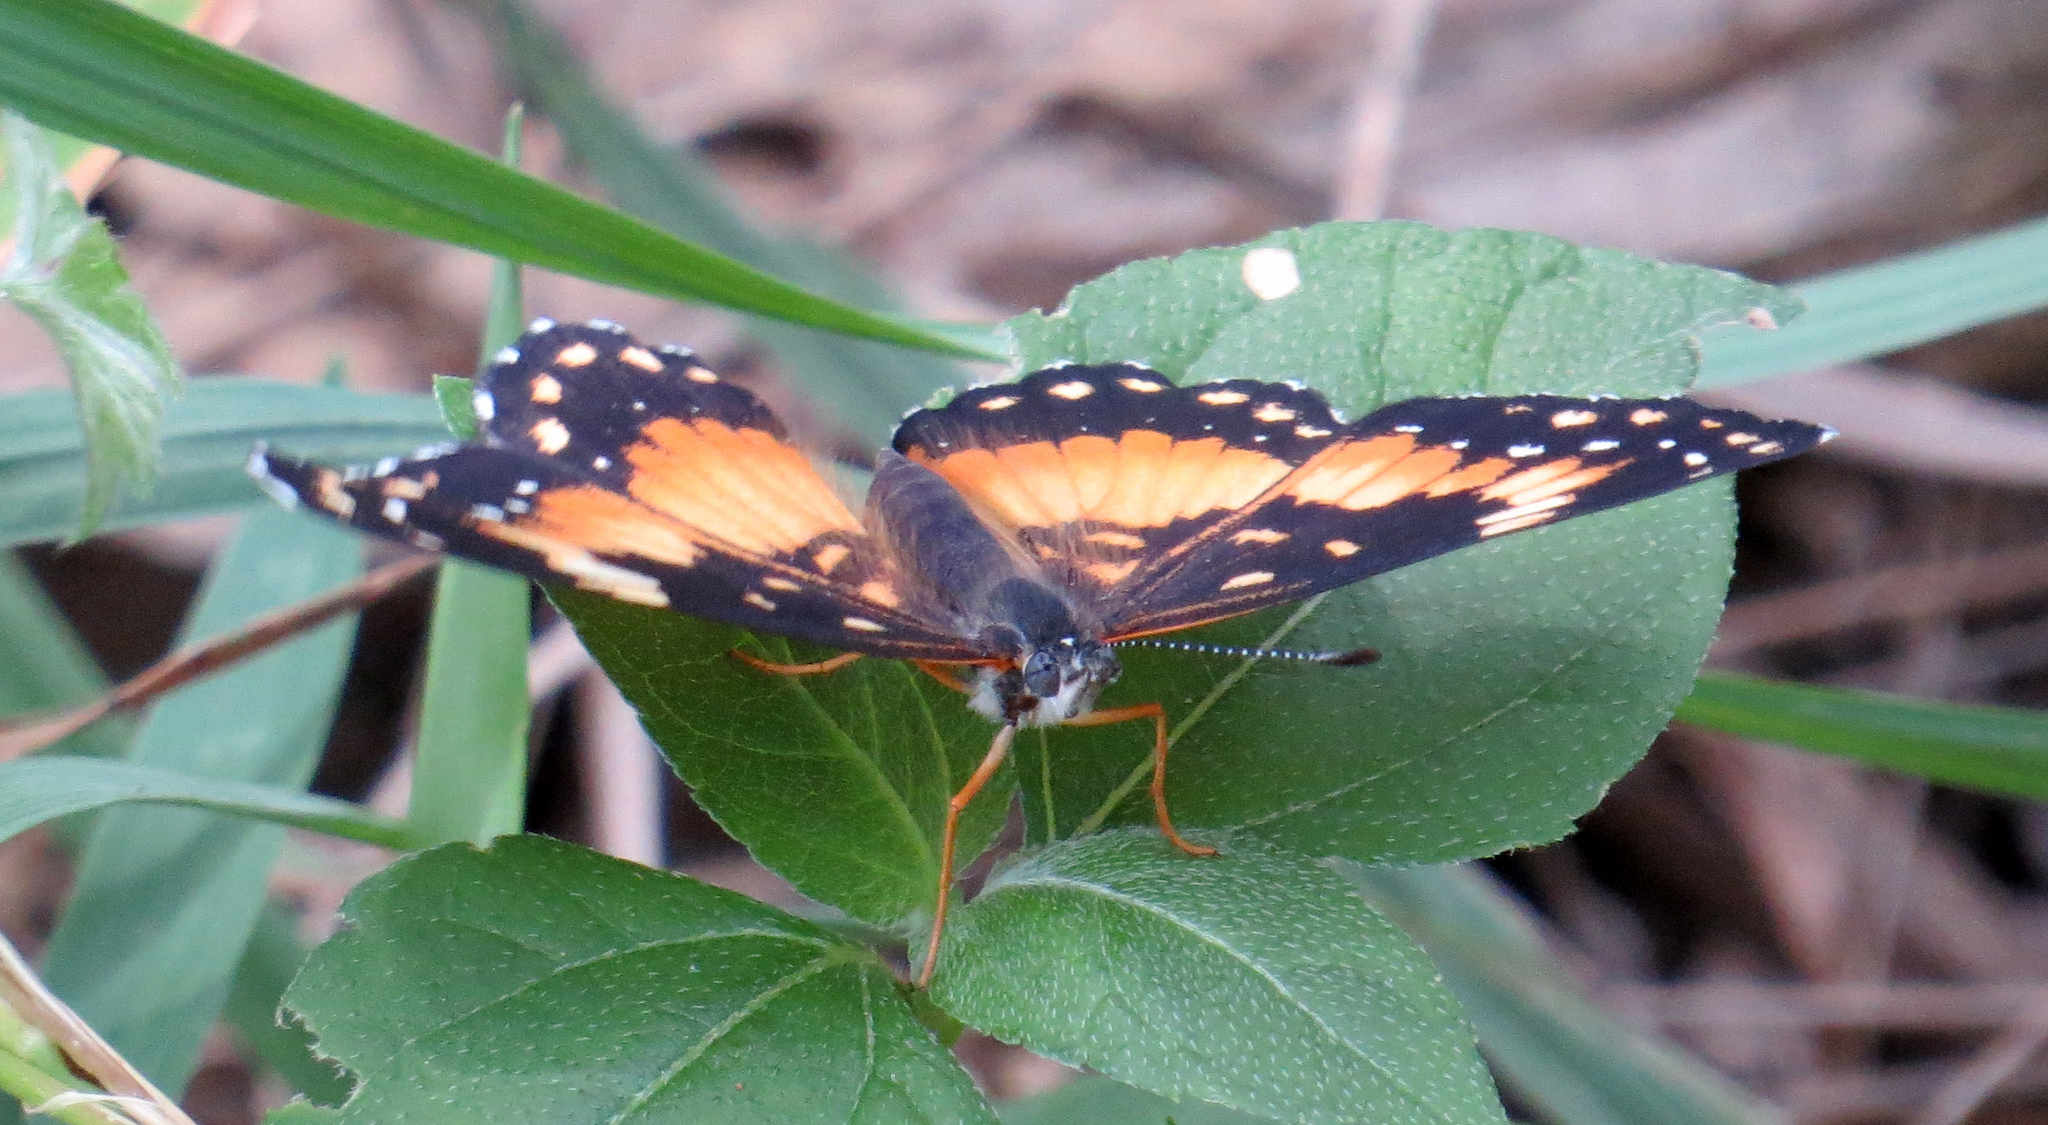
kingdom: Animalia
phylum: Arthropoda
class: Insecta
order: Lepidoptera
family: Nymphalidae
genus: Chlosyne
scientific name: Chlosyne lacinia
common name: Bordered patch
